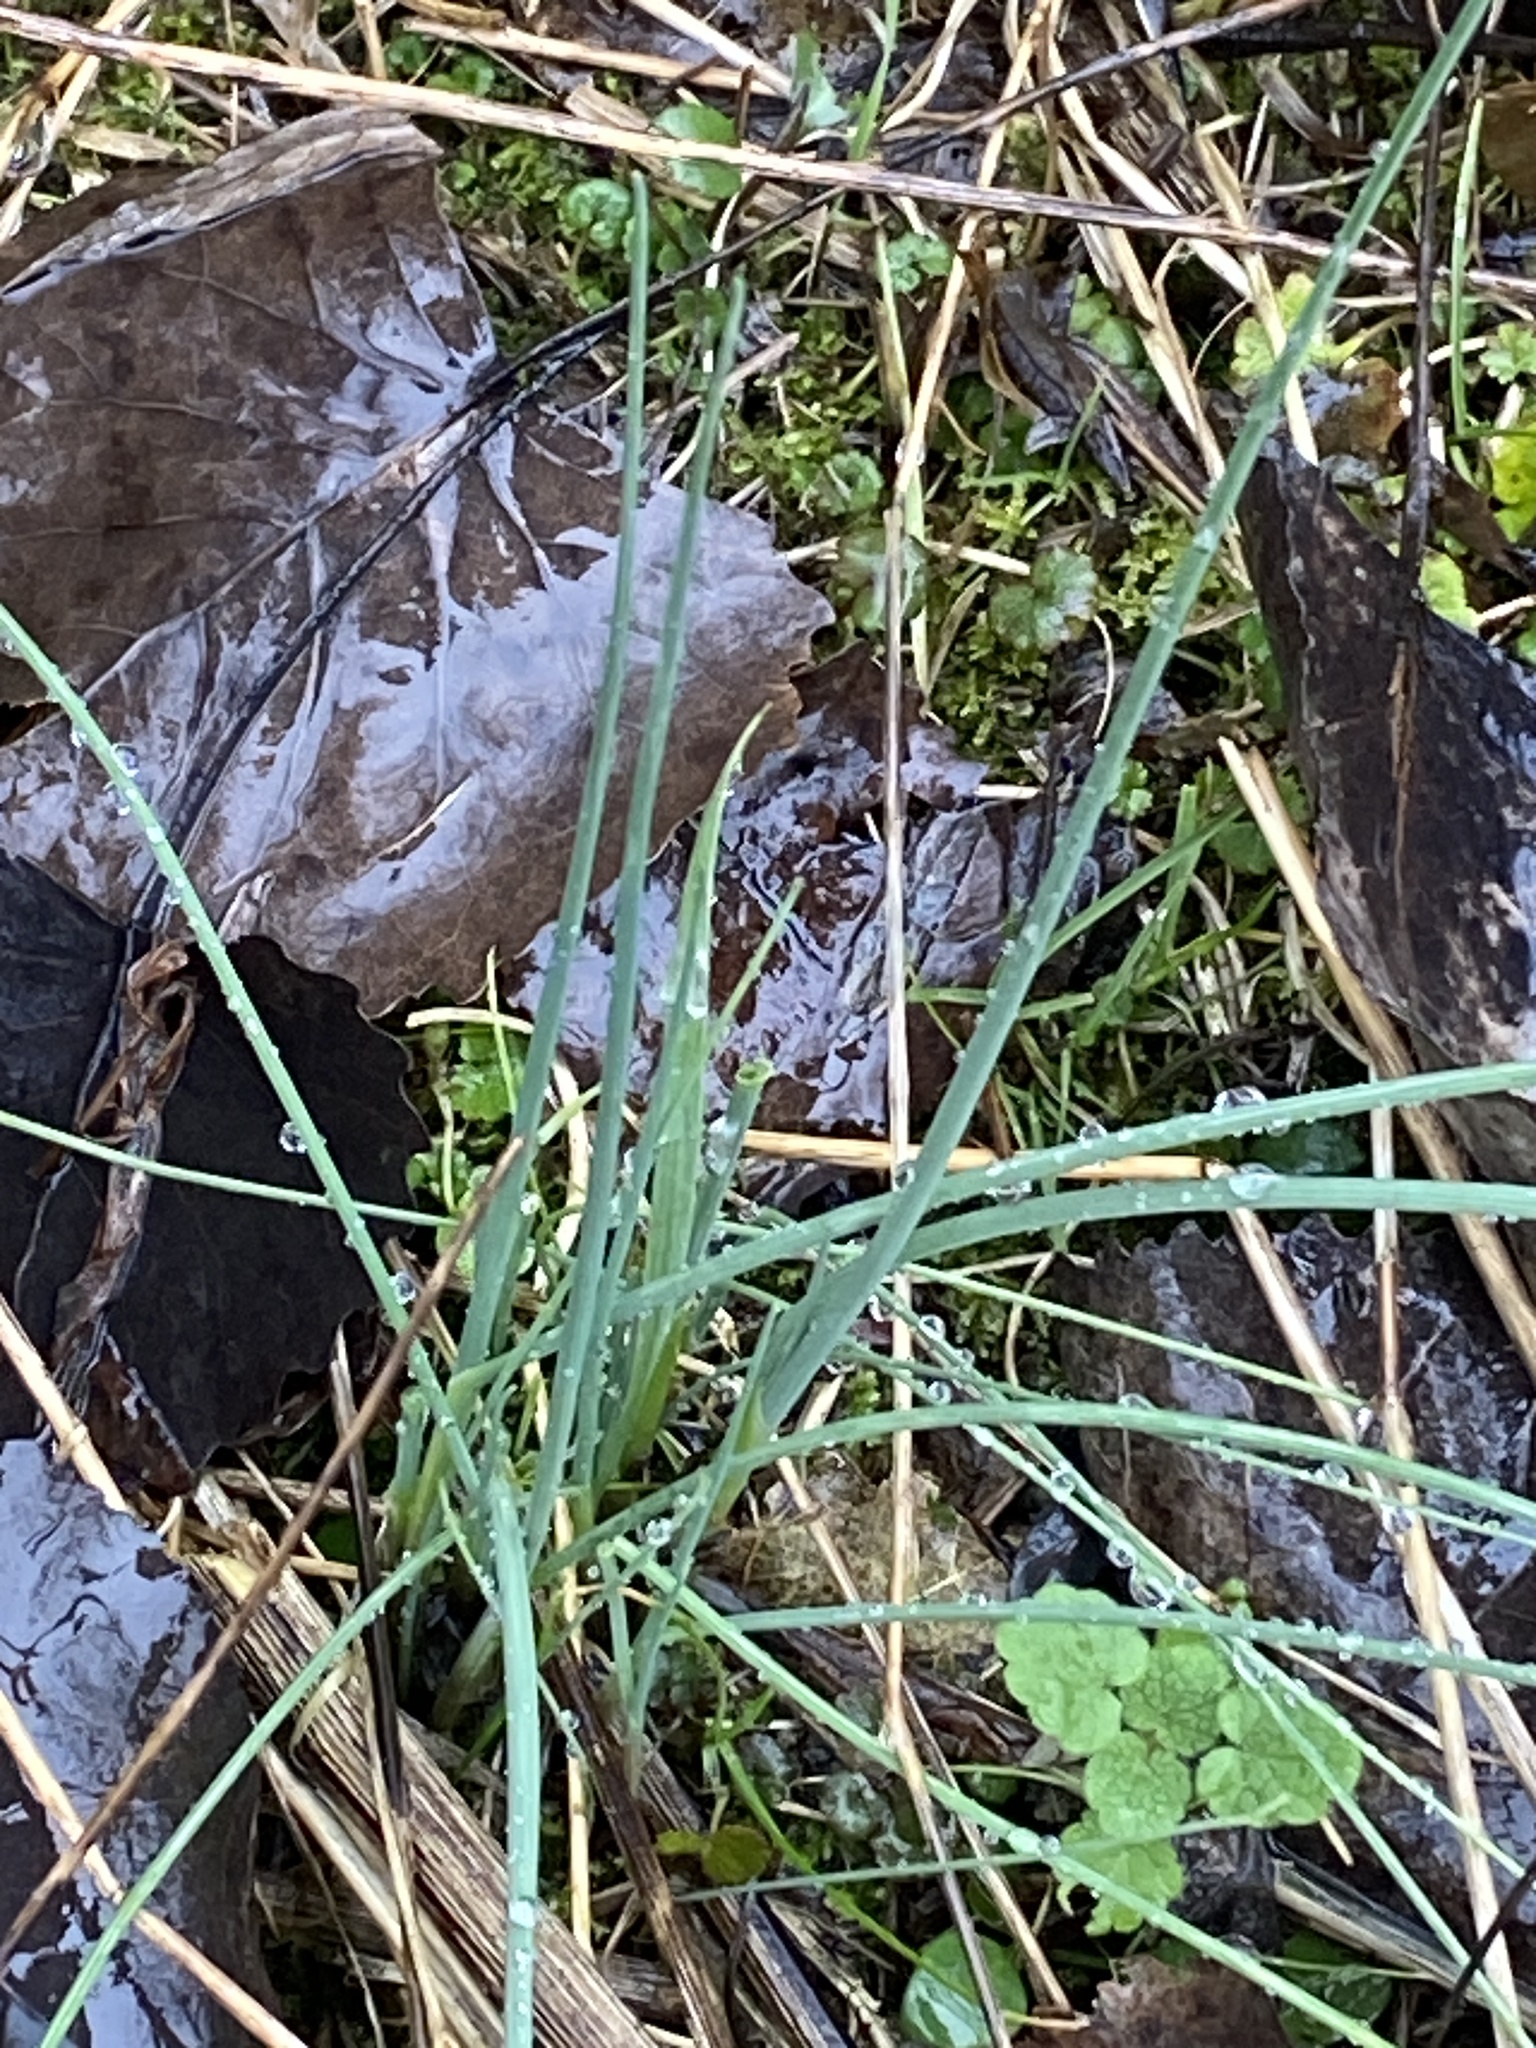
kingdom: Plantae
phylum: Tracheophyta
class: Liliopsida
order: Asparagales
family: Amaryllidaceae
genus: Allium
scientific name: Allium vineale
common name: Crow garlic
